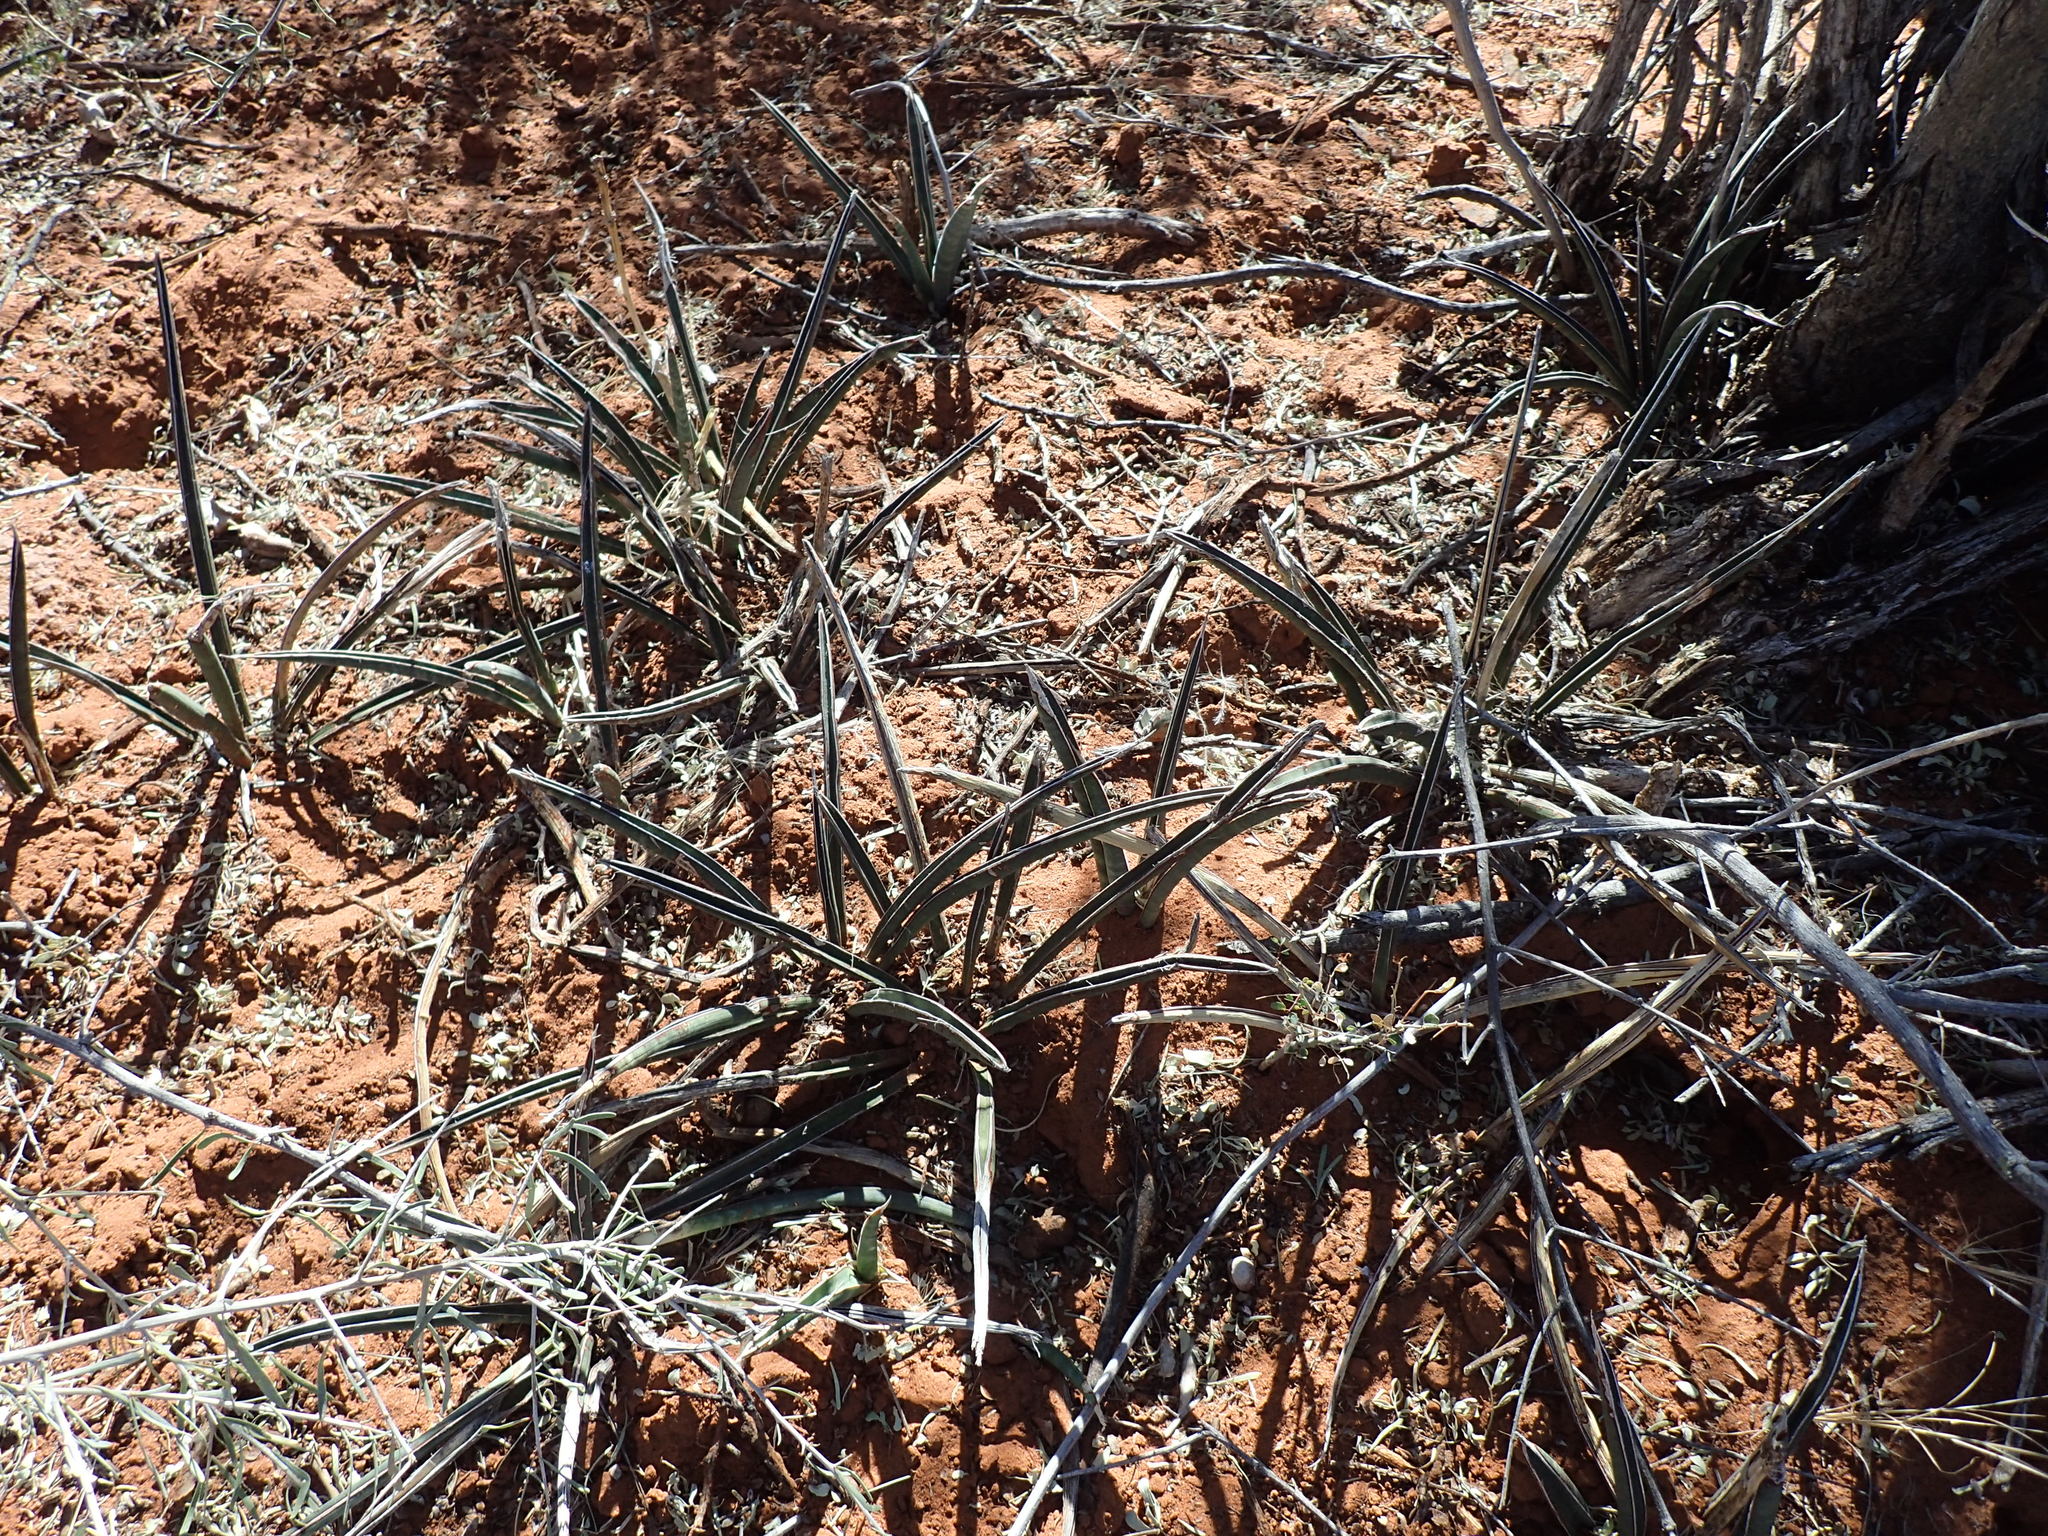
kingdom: Plantae
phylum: Tracheophyta
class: Liliopsida
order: Asparagales
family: Asparagaceae
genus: Dracaena
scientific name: Dracaena aethiopica
